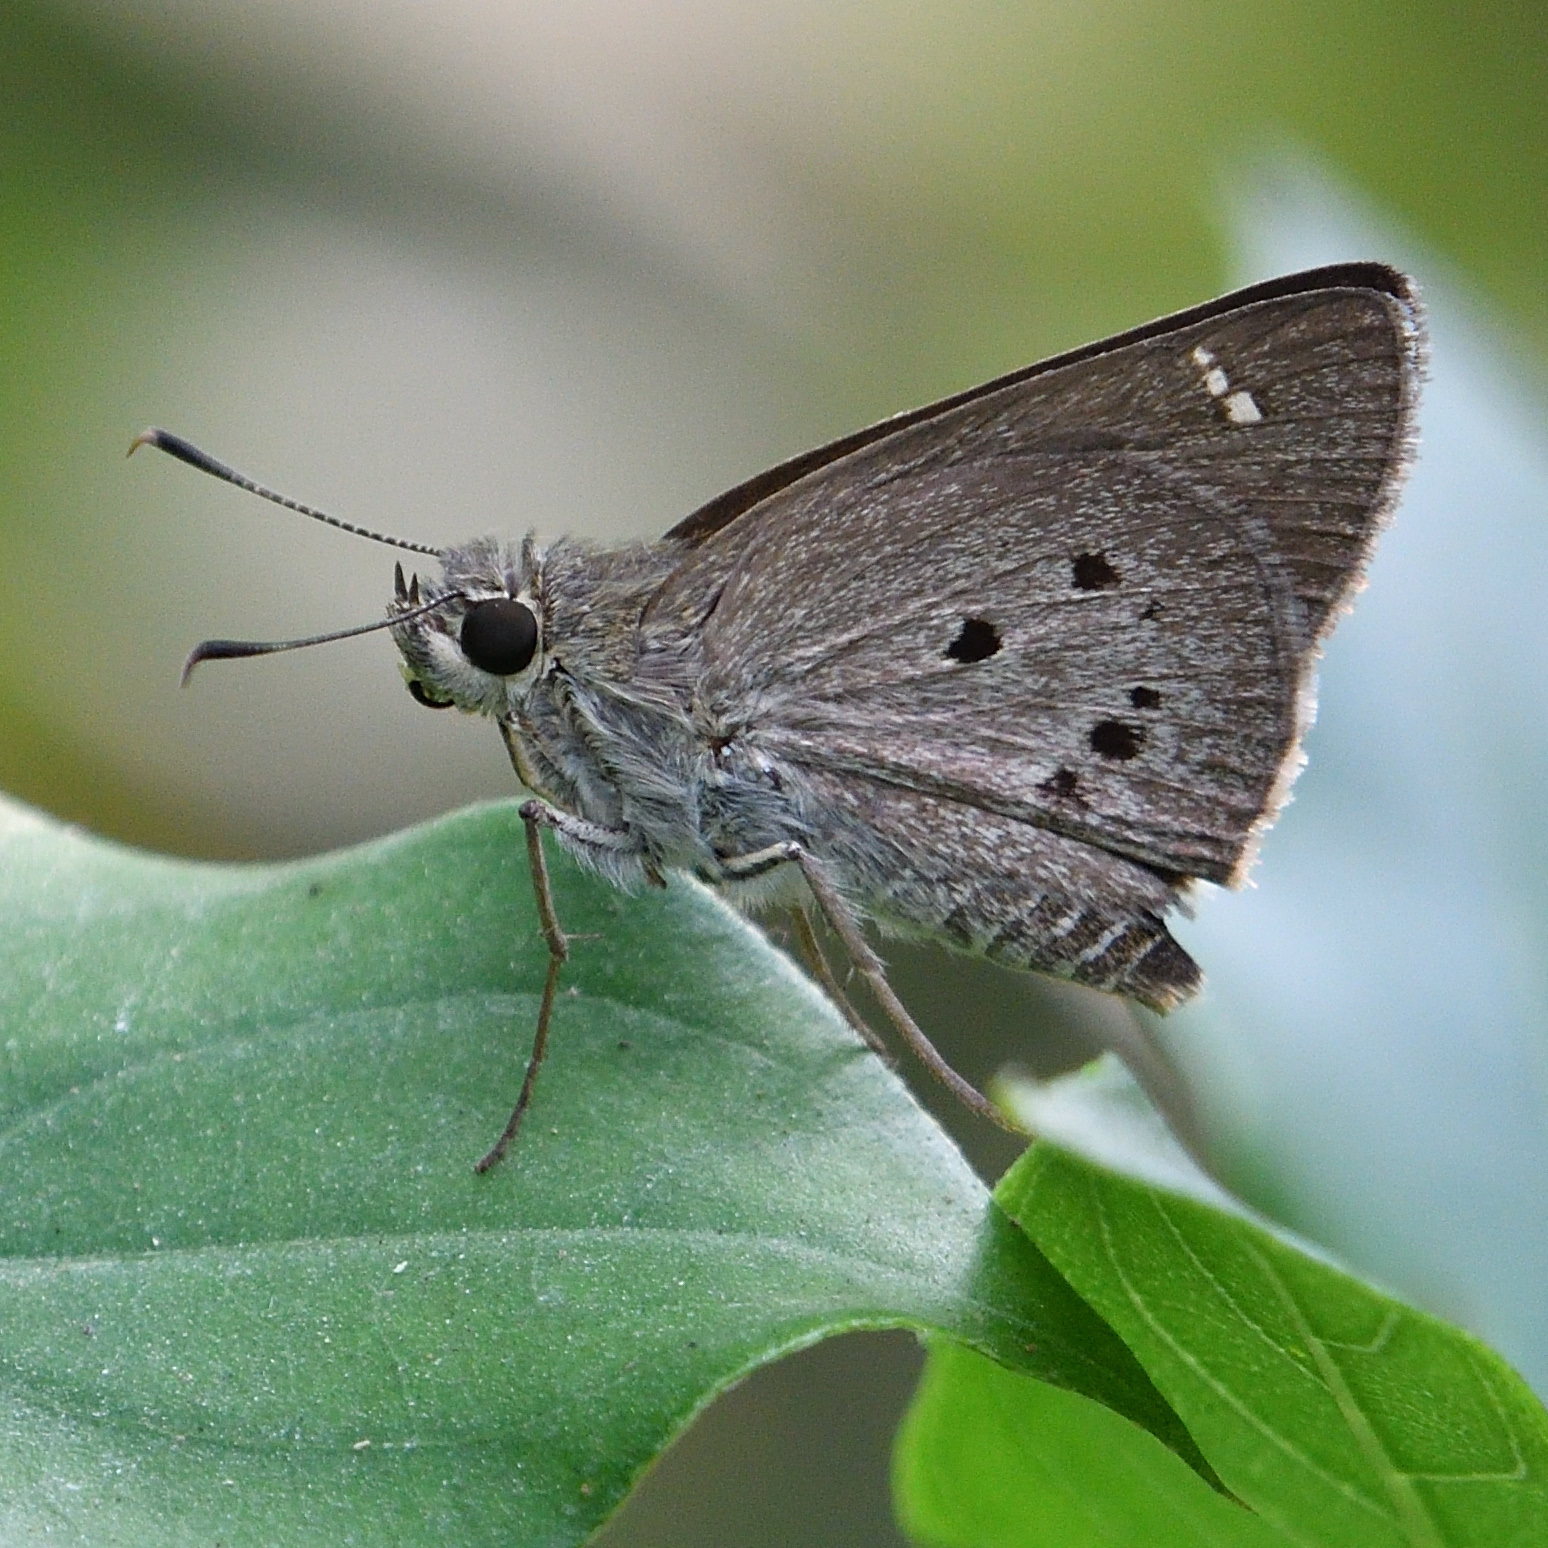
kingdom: Animalia
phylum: Arthropoda
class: Insecta
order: Lepidoptera
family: Hesperiidae
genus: Suastus
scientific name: Suastus gremius
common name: Indian palm bob
